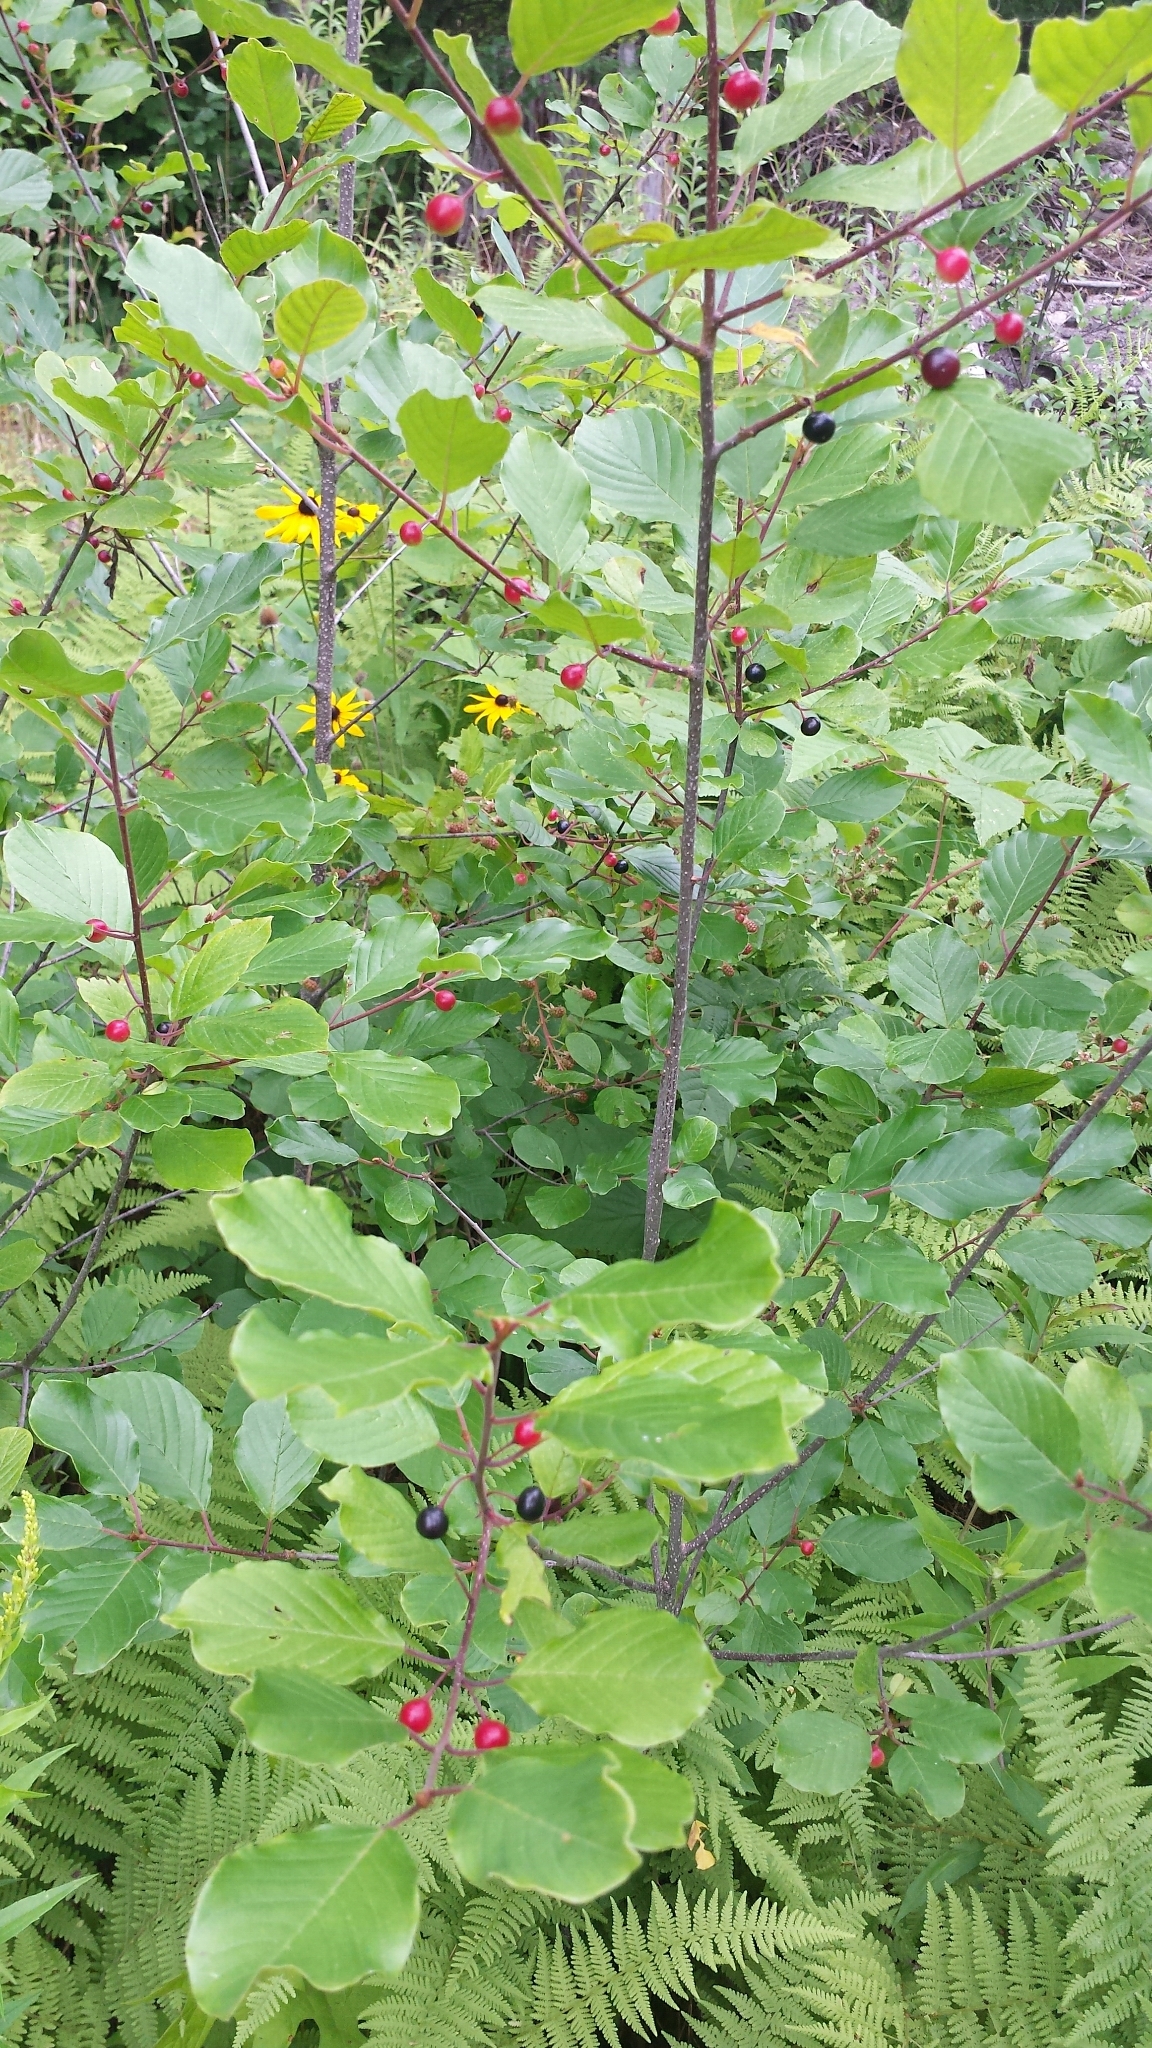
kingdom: Plantae
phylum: Tracheophyta
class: Magnoliopsida
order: Rosales
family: Rhamnaceae
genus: Frangula
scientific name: Frangula alnus
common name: Alder buckthorn
